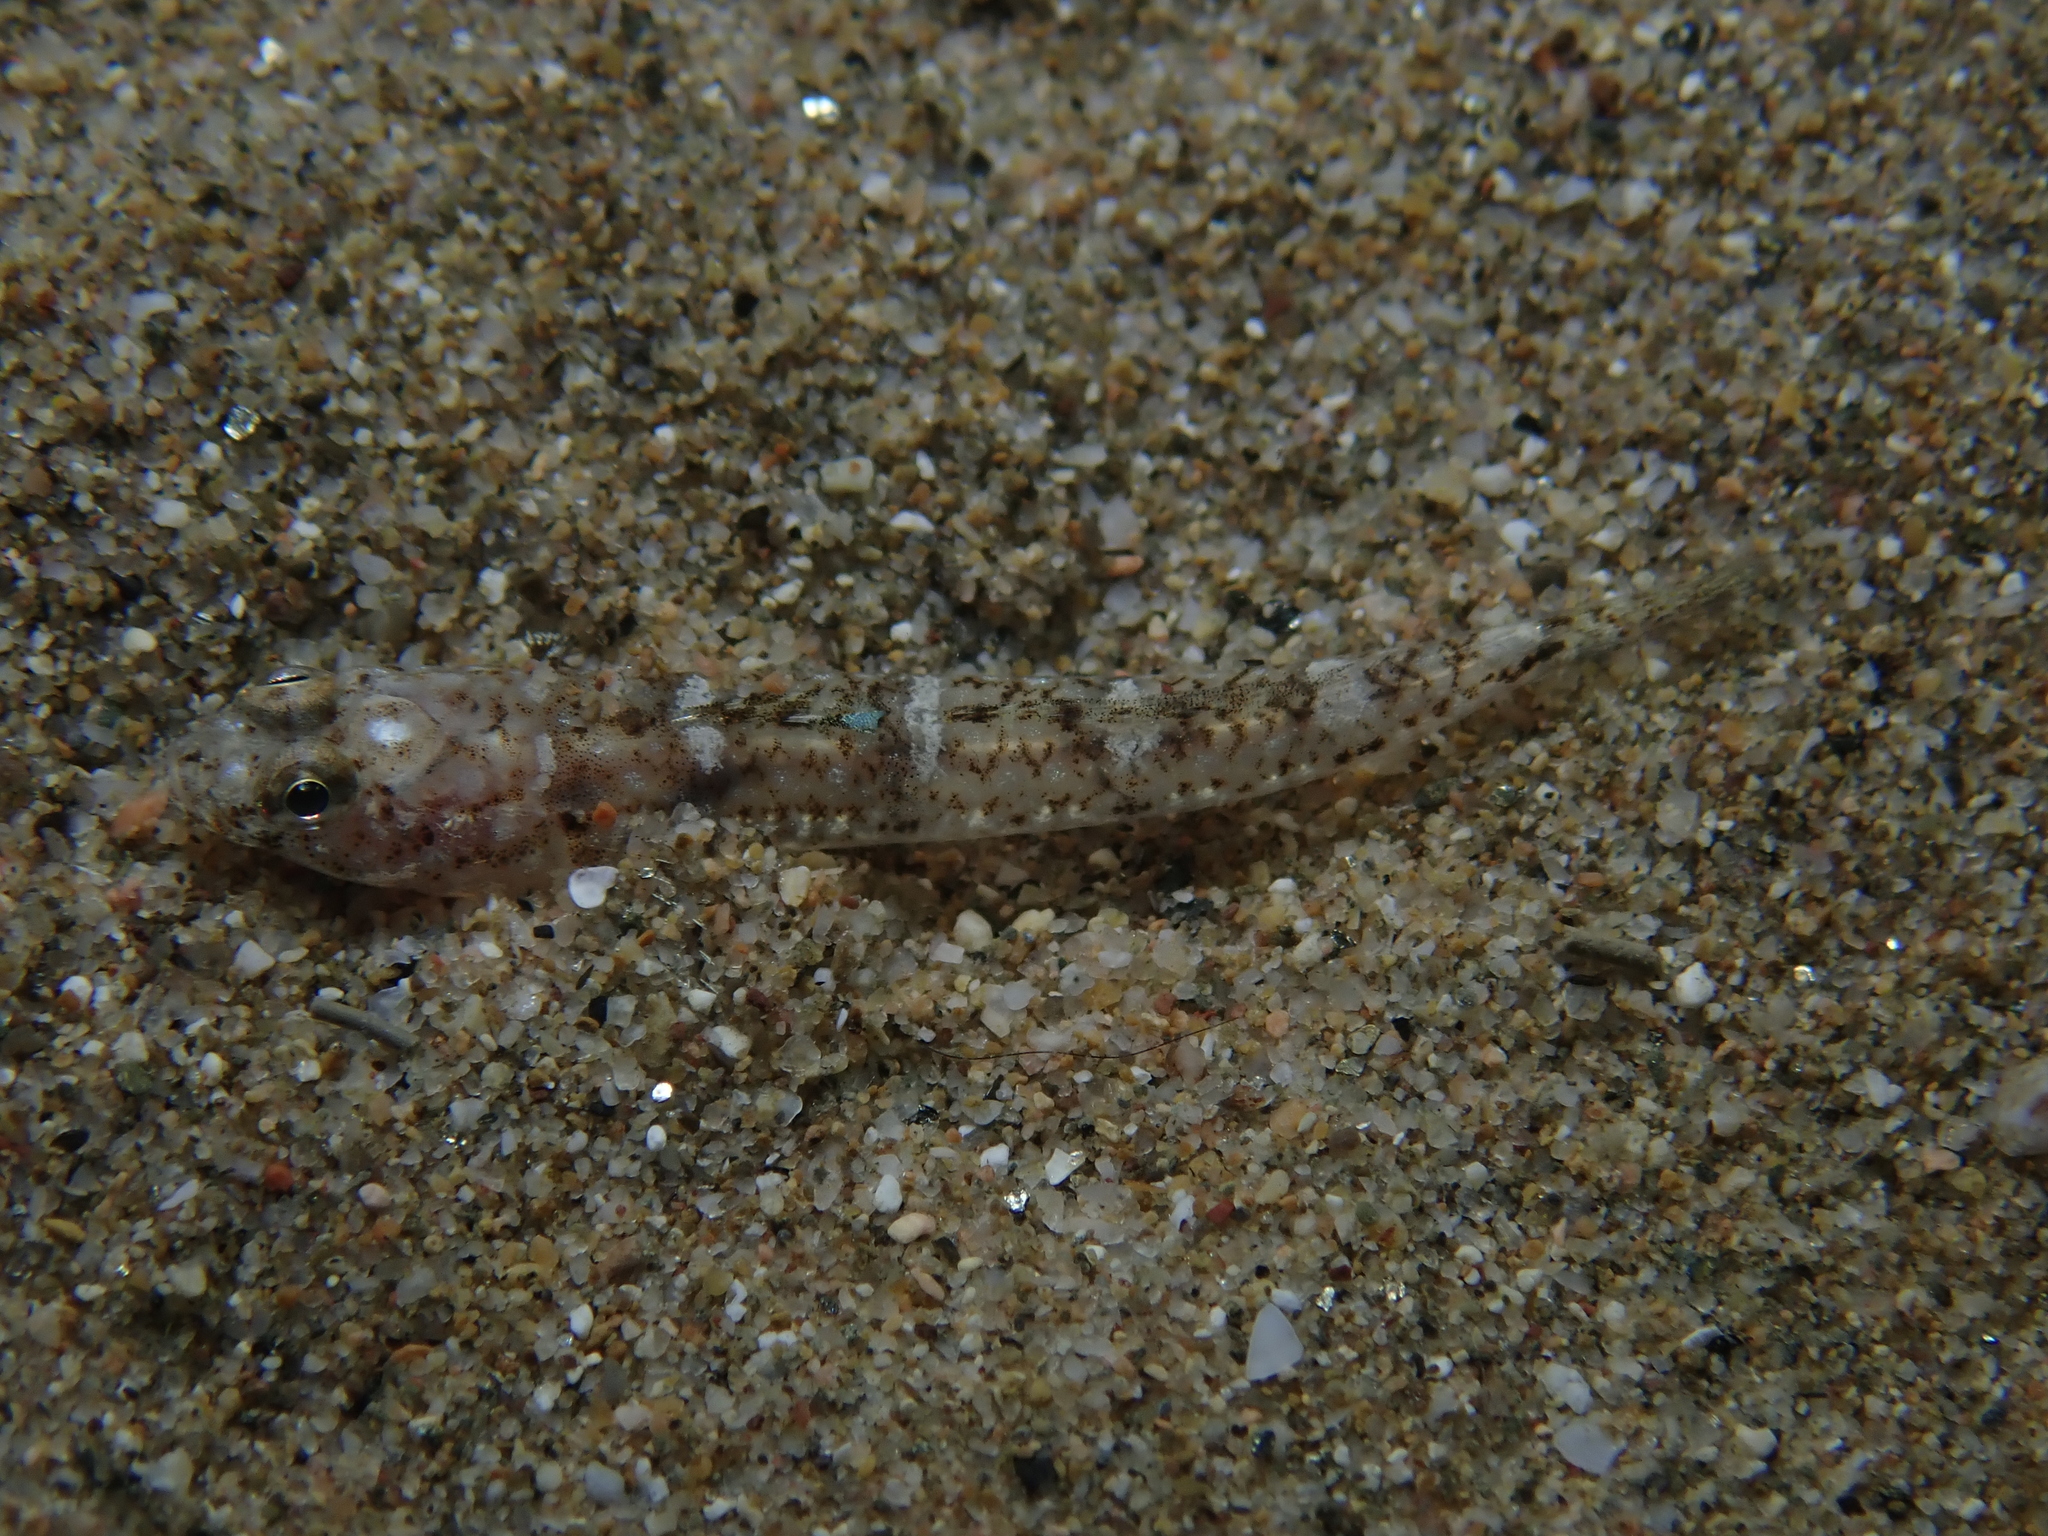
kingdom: Animalia
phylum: Chordata
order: Perciformes
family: Gobiidae
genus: Pomatoschistus
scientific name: Pomatoschistus marmoratus
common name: Marbled goby
